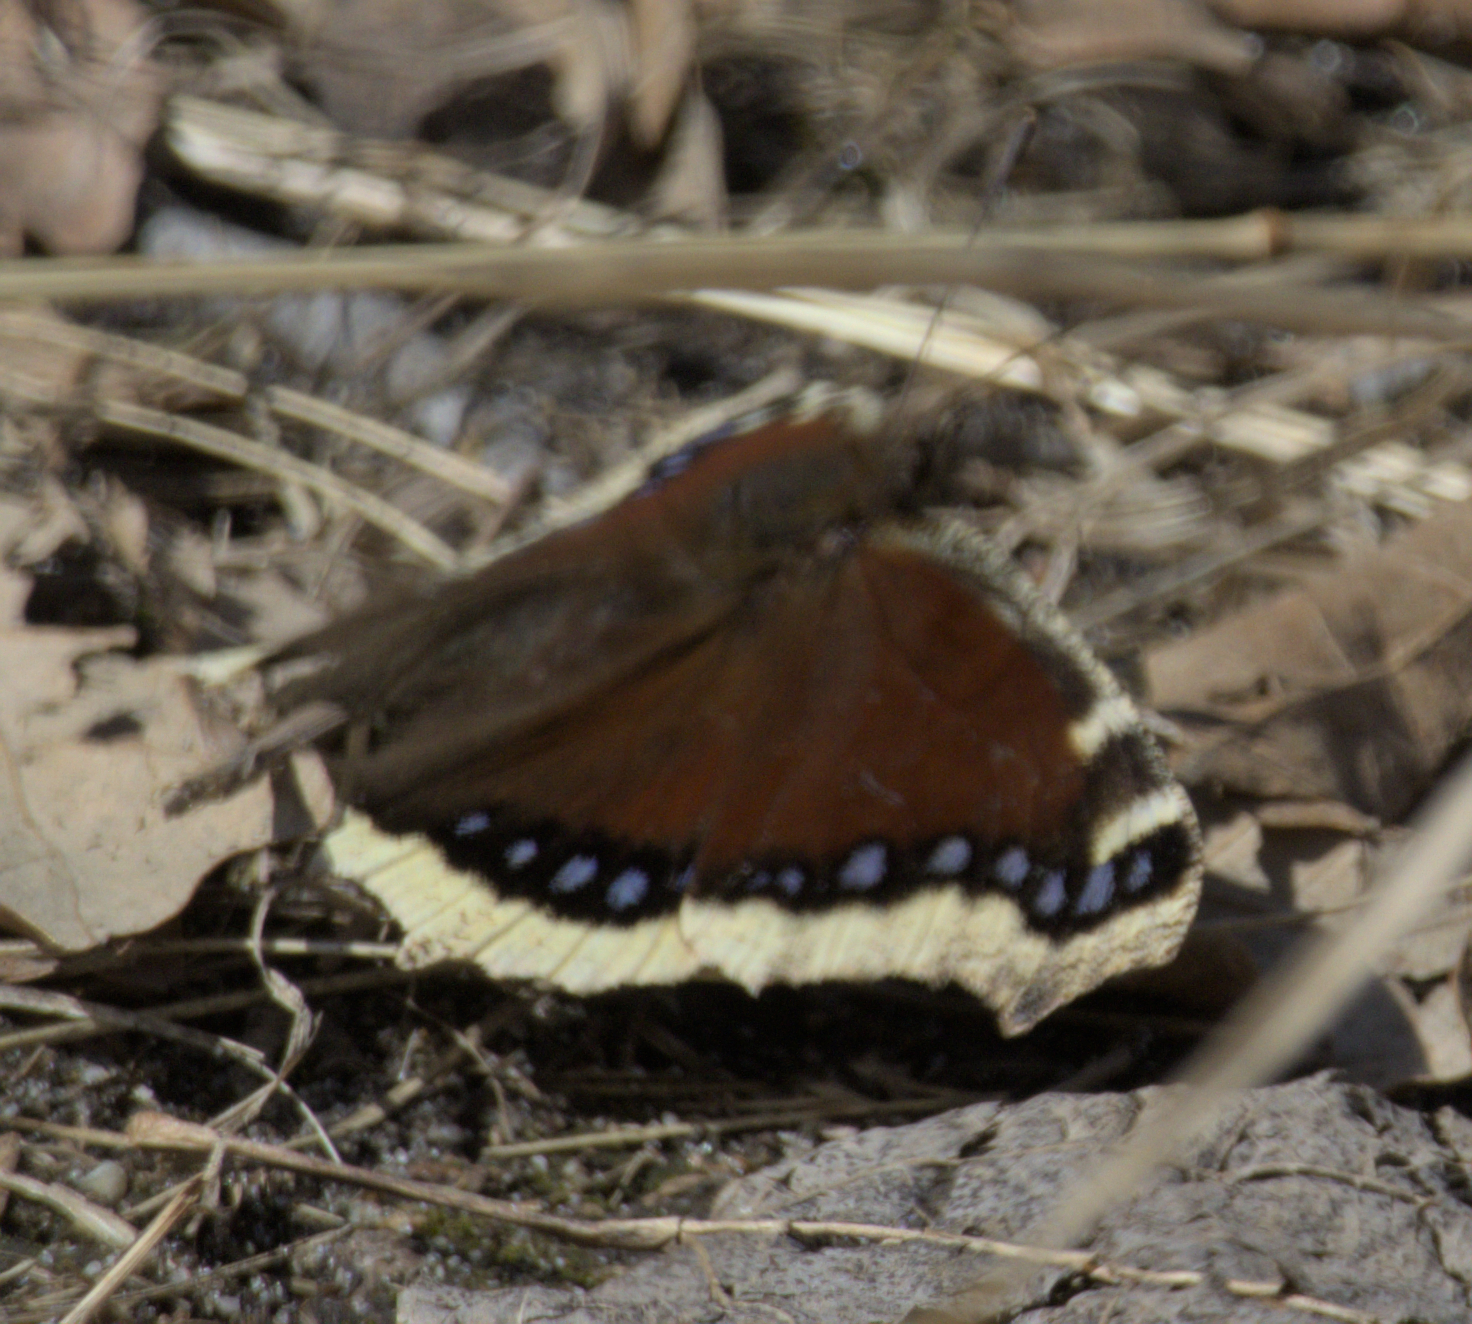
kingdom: Animalia
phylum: Arthropoda
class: Insecta
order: Lepidoptera
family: Nymphalidae
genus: Nymphalis
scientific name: Nymphalis antiopa
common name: Camberwell beauty
